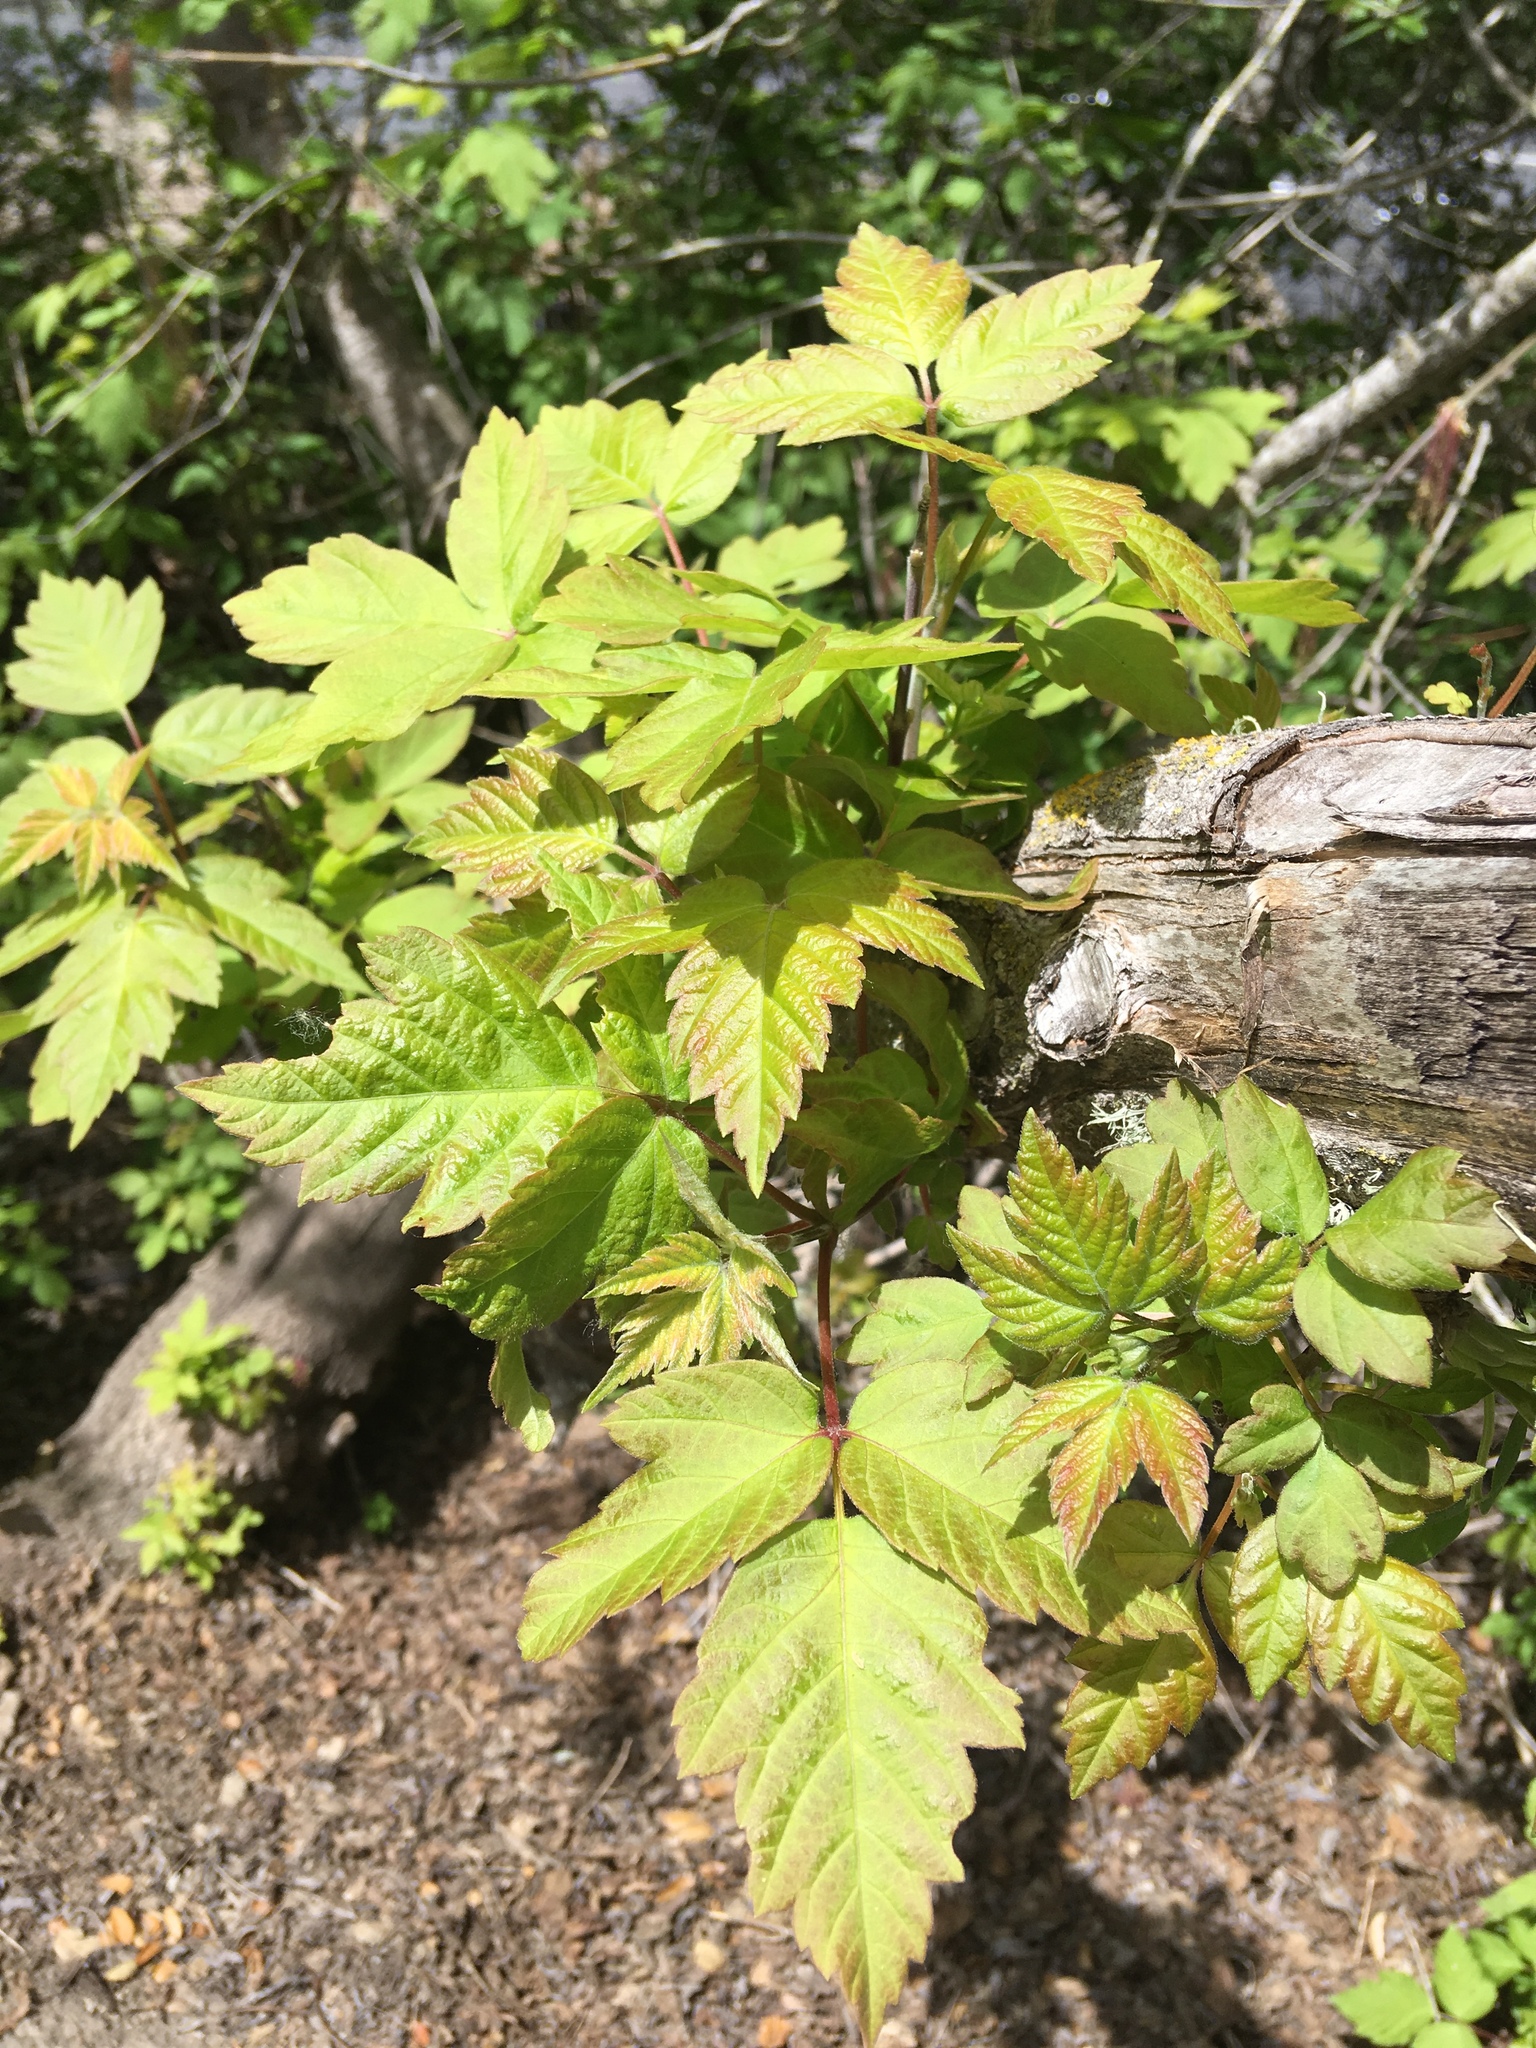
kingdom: Plantae
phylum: Tracheophyta
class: Magnoliopsida
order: Sapindales
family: Sapindaceae
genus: Acer
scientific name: Acer negundo
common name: Ashleaf maple
